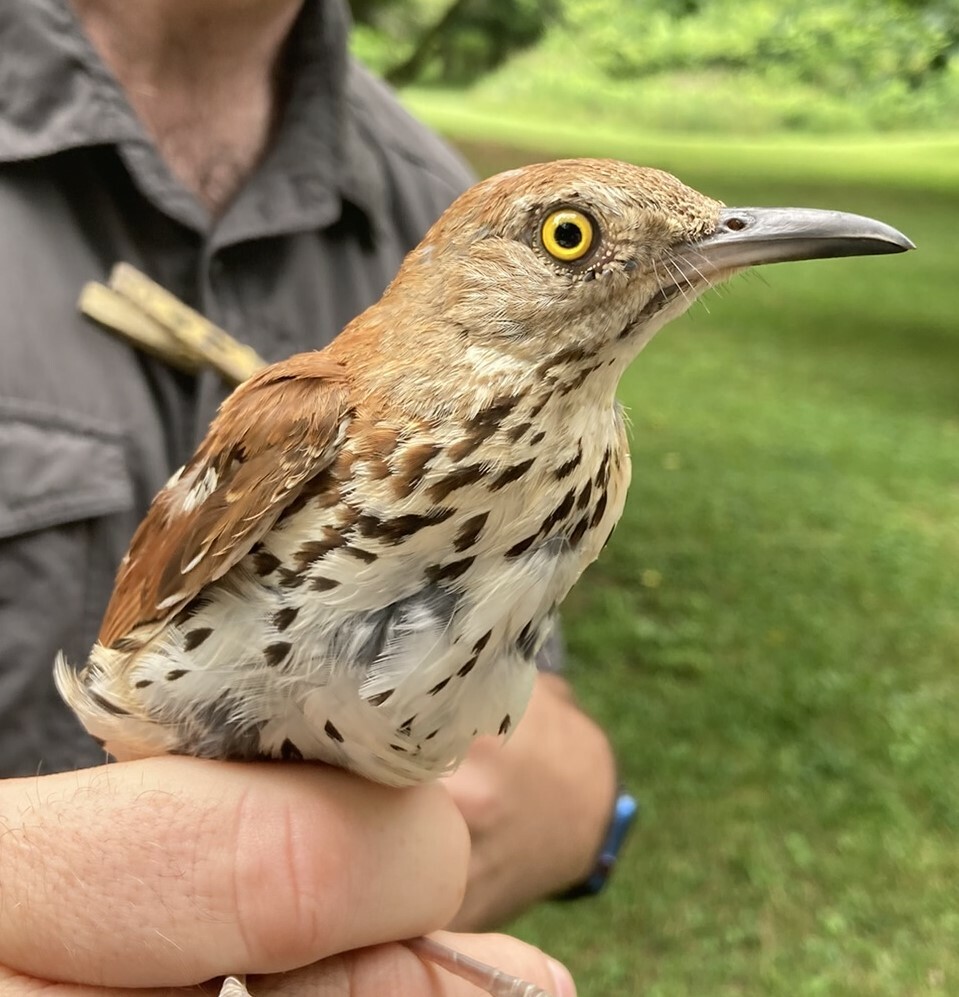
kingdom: Animalia
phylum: Chordata
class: Aves
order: Passeriformes
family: Mimidae
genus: Toxostoma
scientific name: Toxostoma rufum
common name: Brown thrasher
